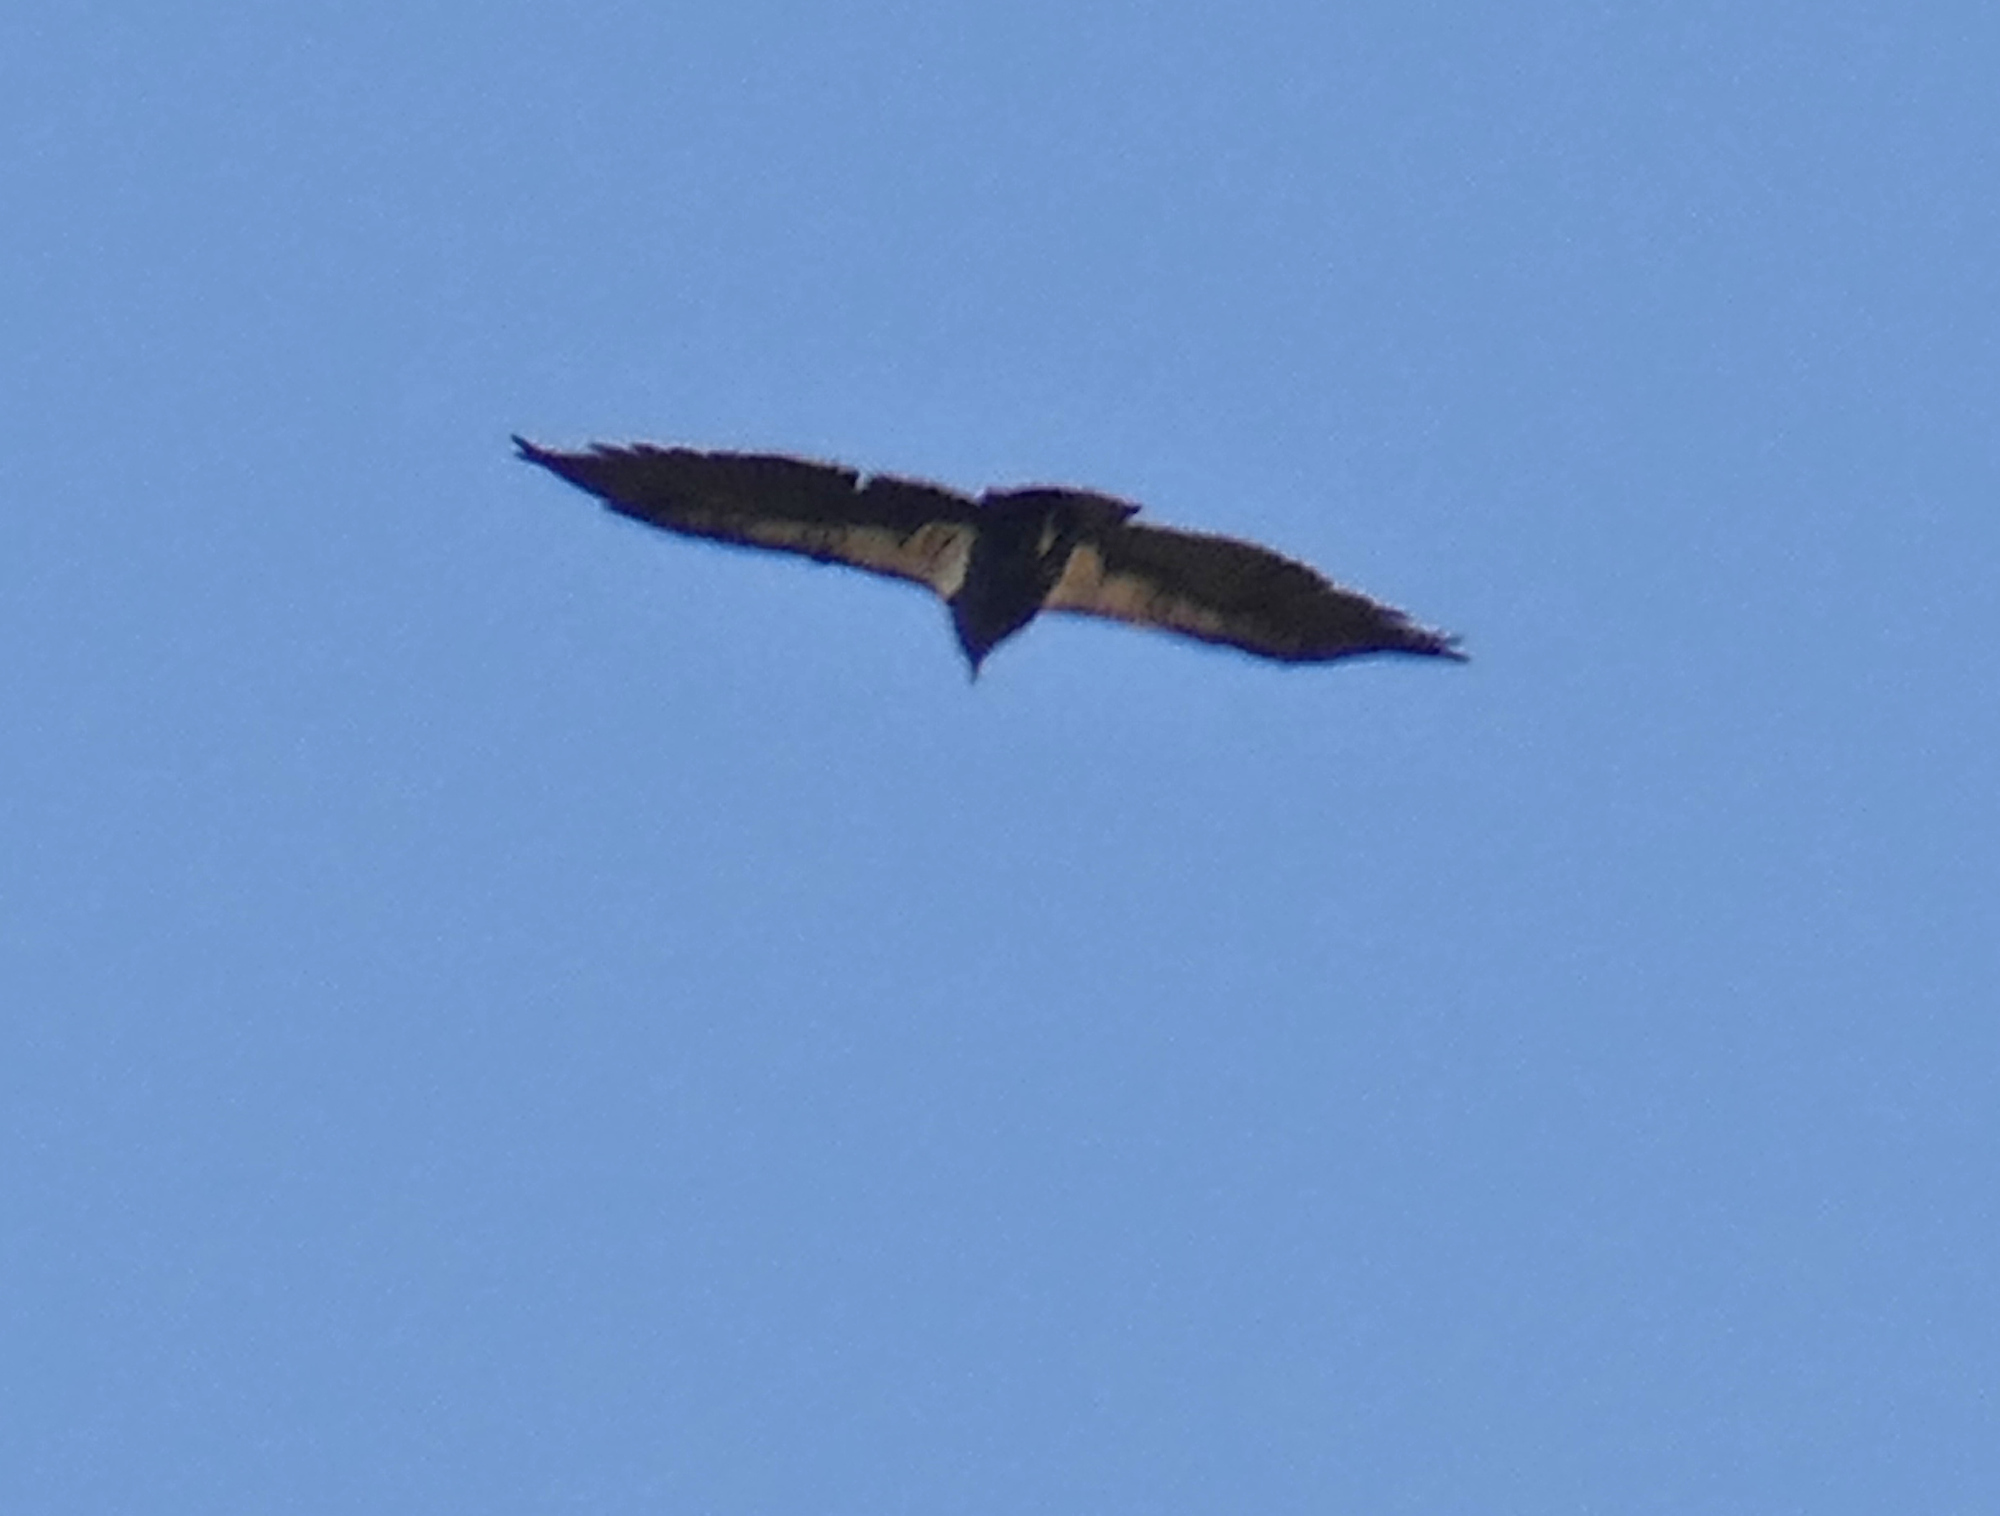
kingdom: Animalia
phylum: Chordata
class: Aves
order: Accipitriformes
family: Cathartidae
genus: Gymnogyps
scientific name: Gymnogyps californianus
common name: California condor
